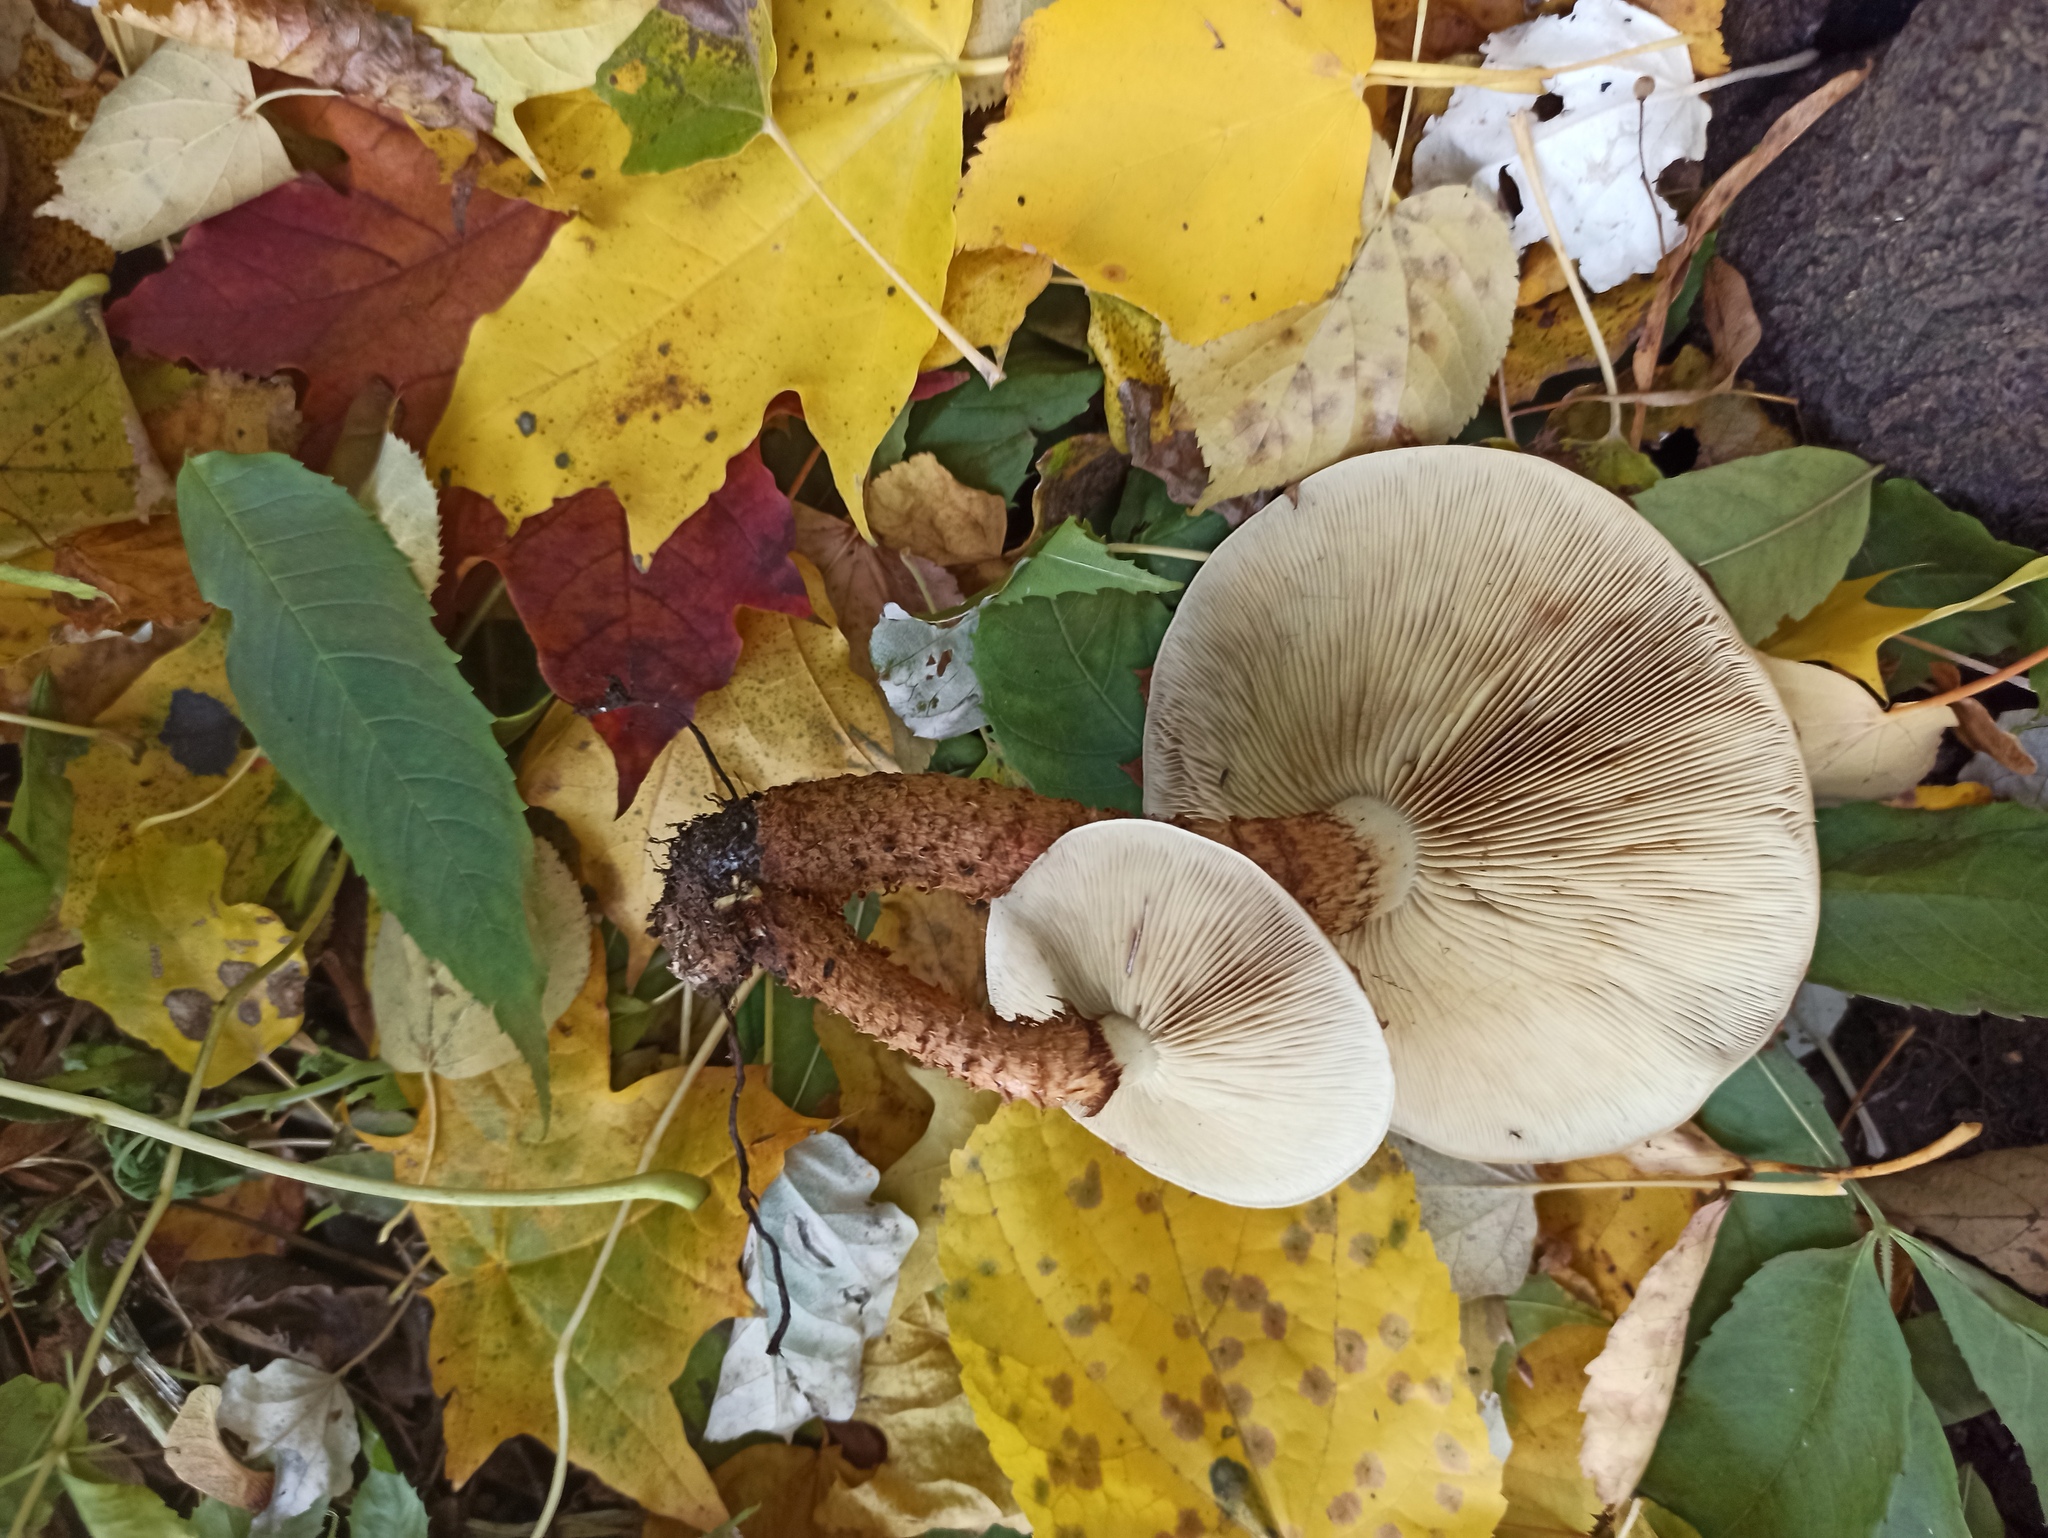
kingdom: Fungi
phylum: Basidiomycota
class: Agaricomycetes
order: Agaricales
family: Strophariaceae
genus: Pholiota
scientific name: Pholiota squarrosa
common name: Shaggy pholiota
